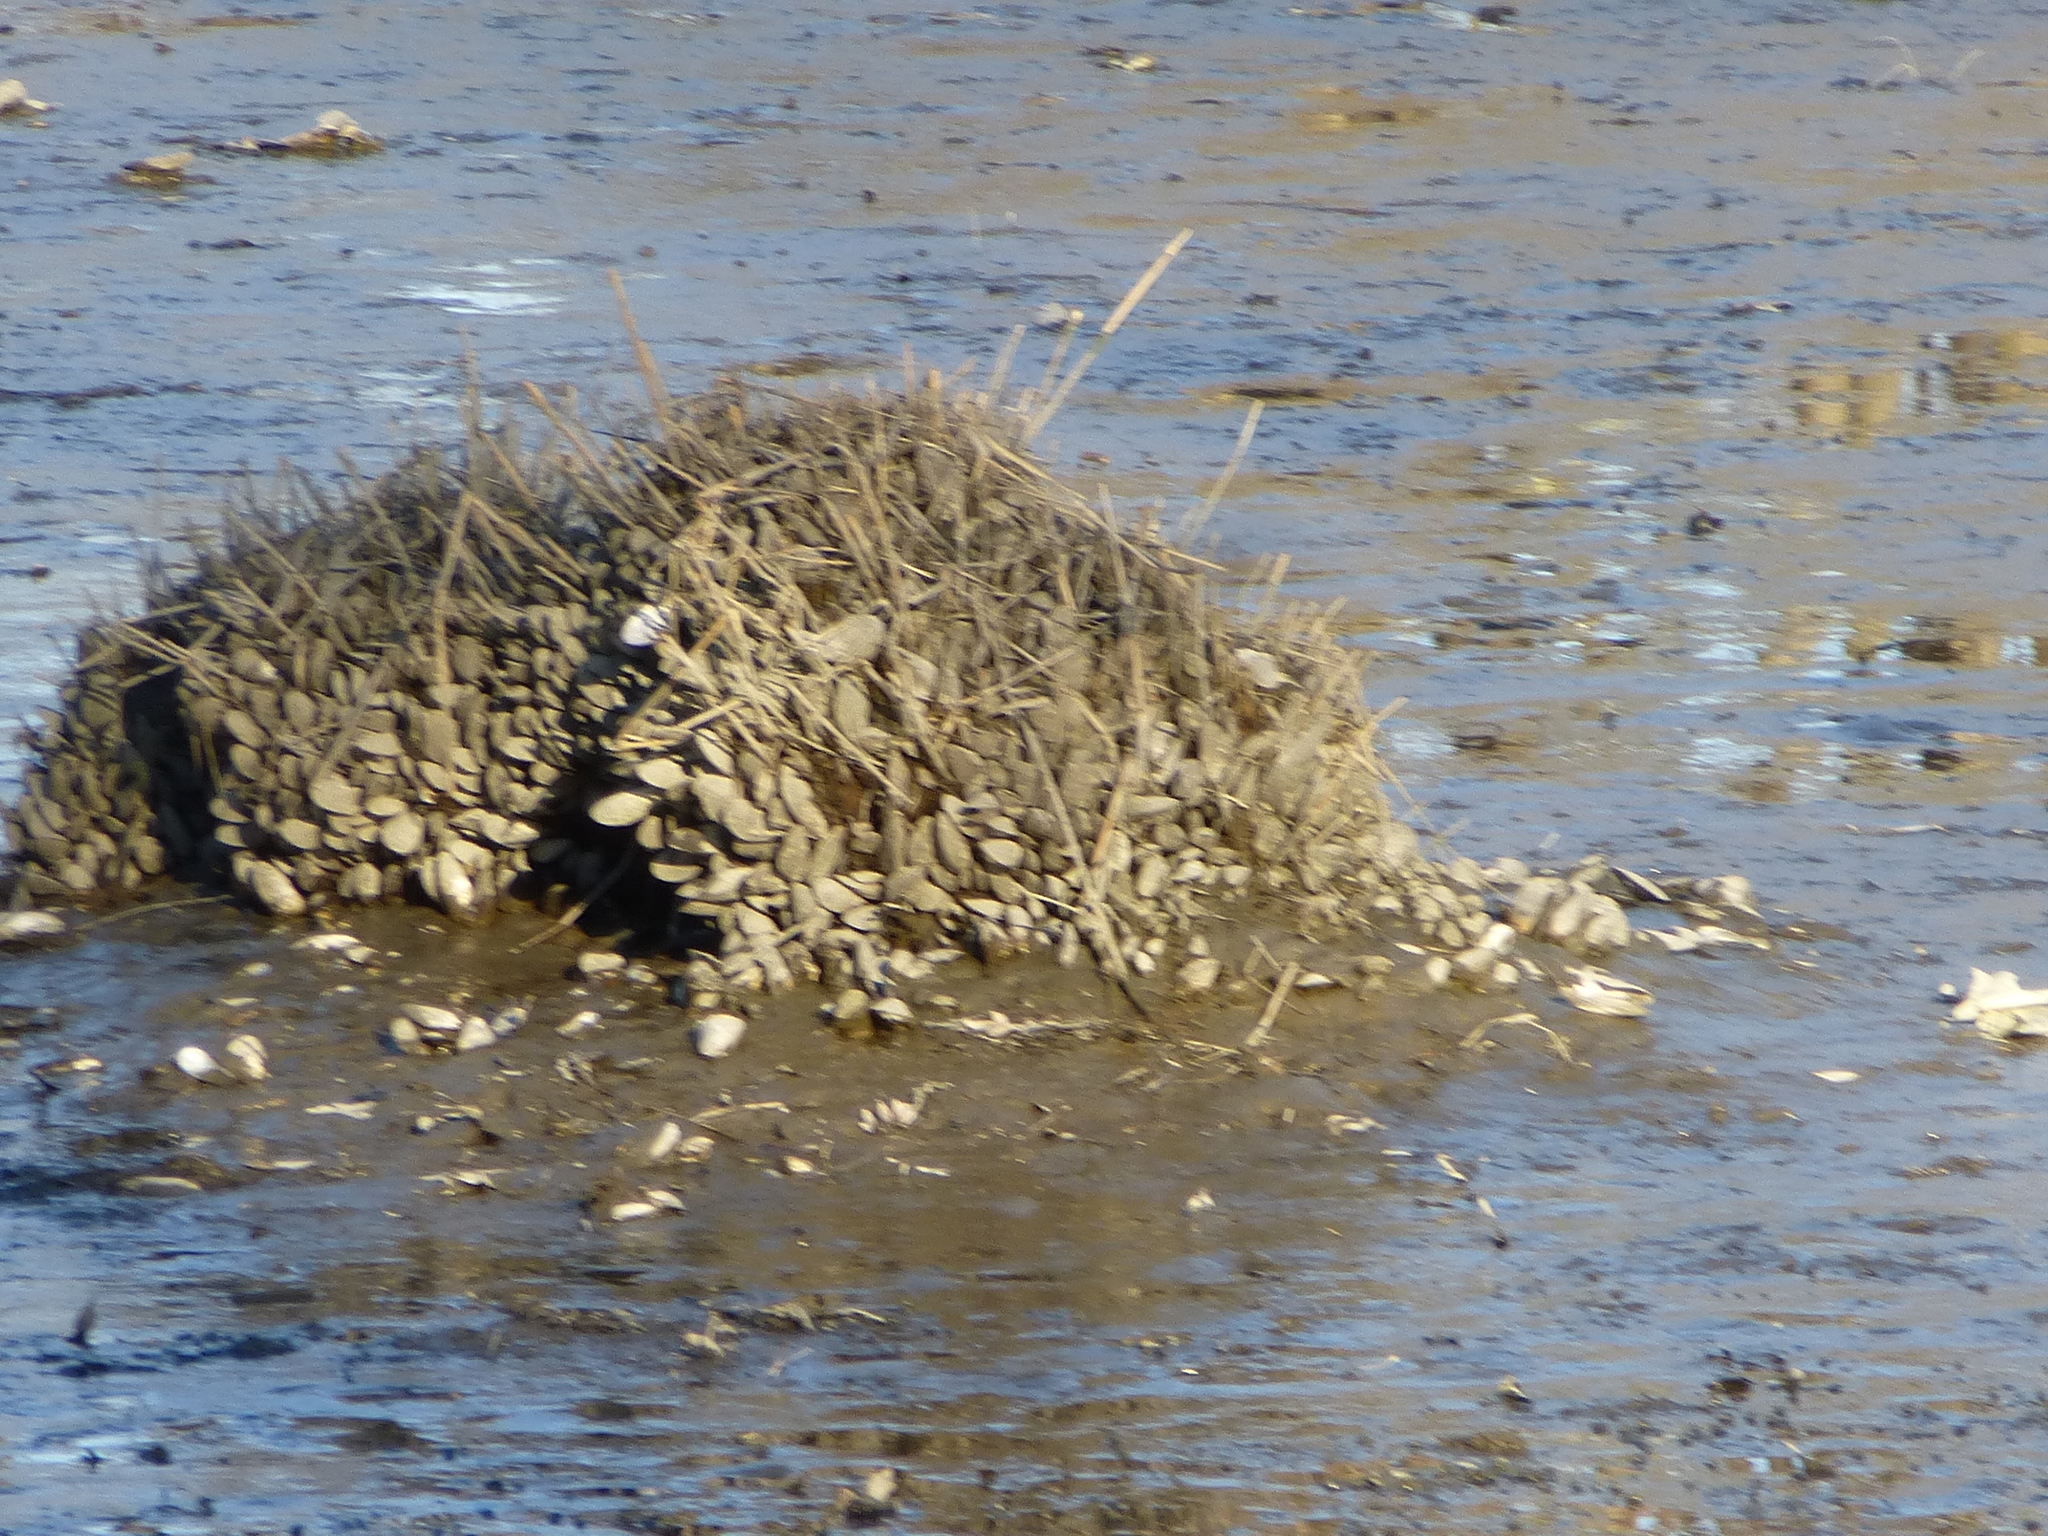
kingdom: Animalia
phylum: Mollusca
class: Bivalvia
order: Mytilida
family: Mytilidae
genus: Geukensia
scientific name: Geukensia demissa
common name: Ribbed mussel
